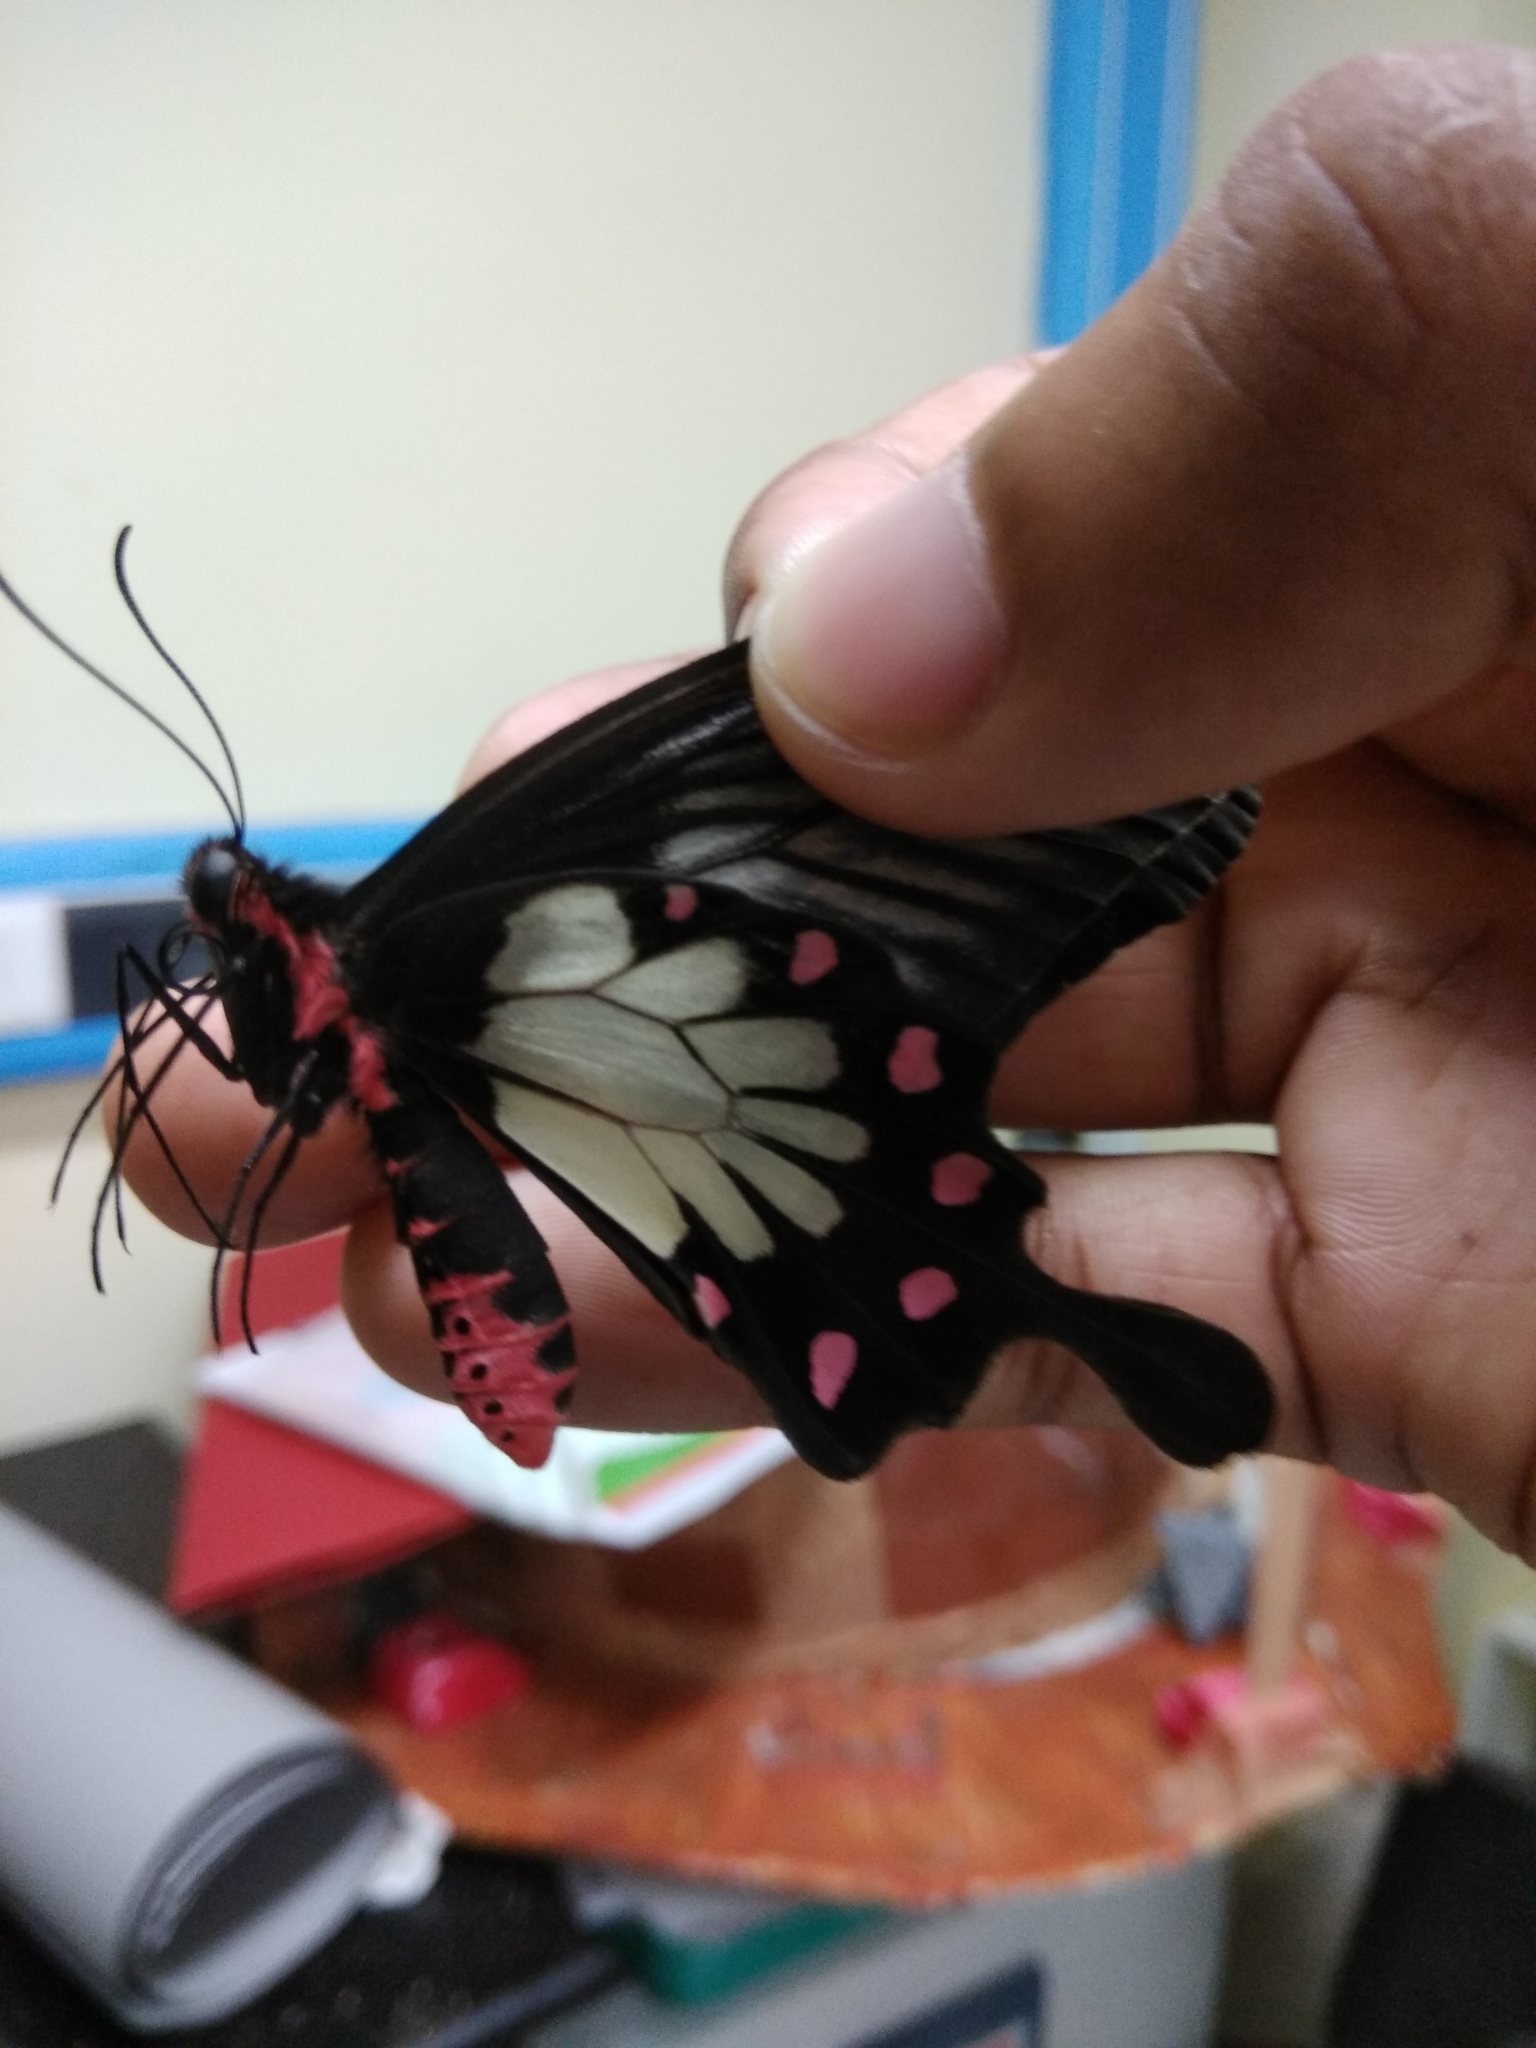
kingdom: Animalia
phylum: Arthropoda
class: Insecta
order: Lepidoptera
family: Papilionidae
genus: Pachliopta
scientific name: Pachliopta pandiyana
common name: Malabar rose
